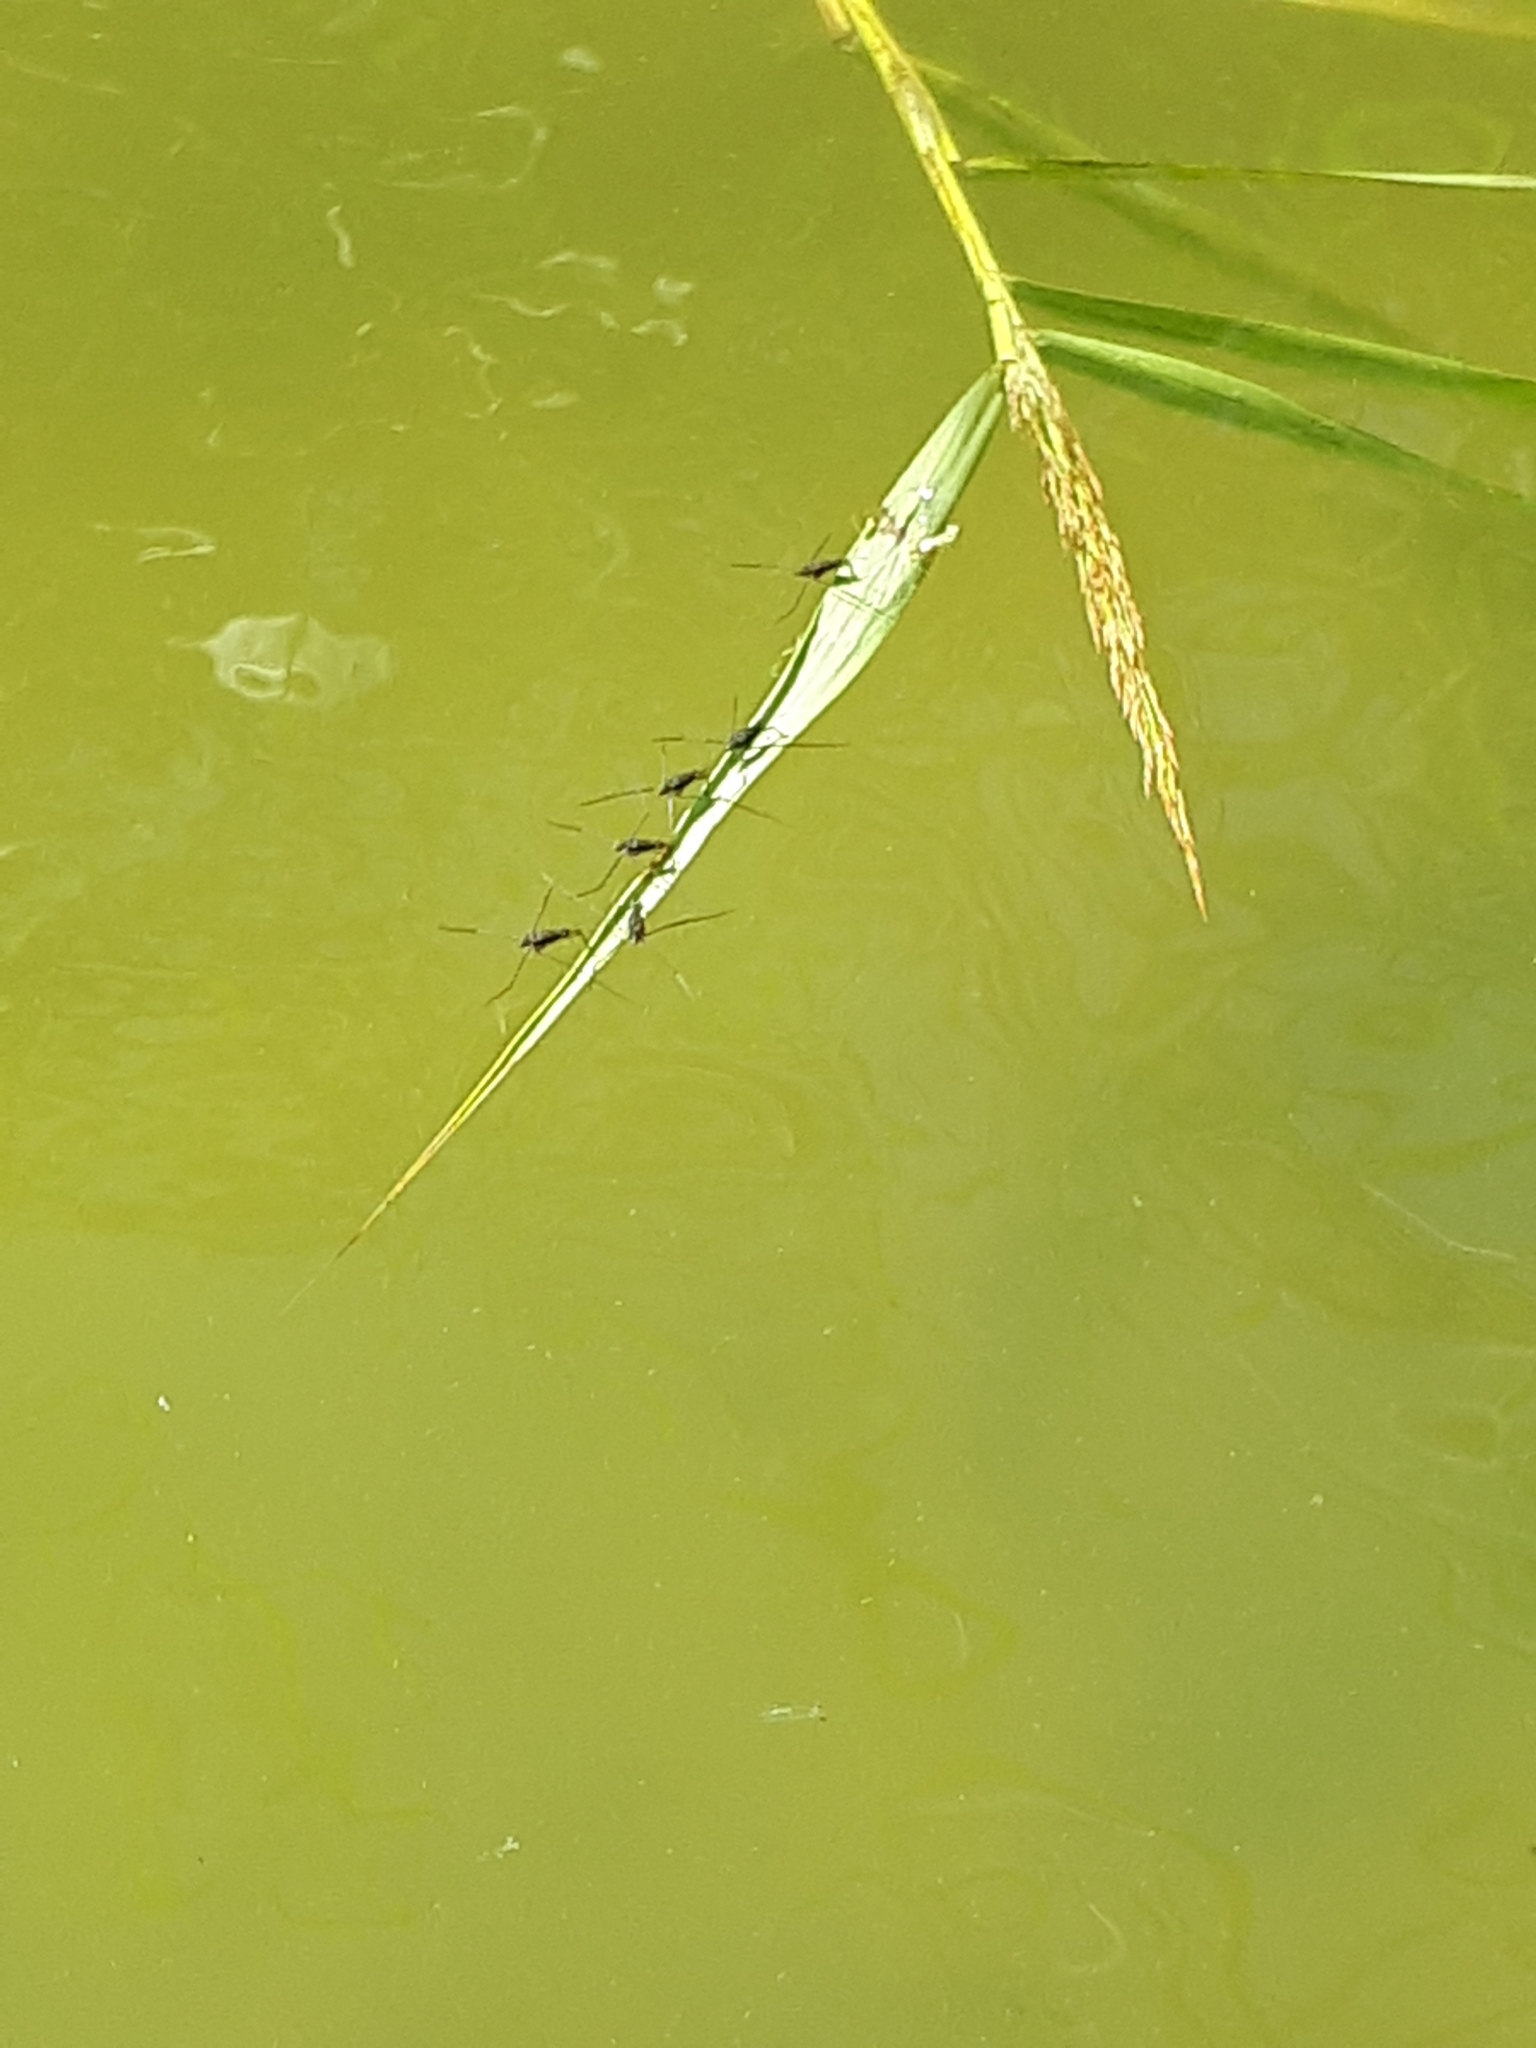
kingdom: Animalia
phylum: Arthropoda
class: Insecta
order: Hemiptera
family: Gerridae
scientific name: Gerridae
